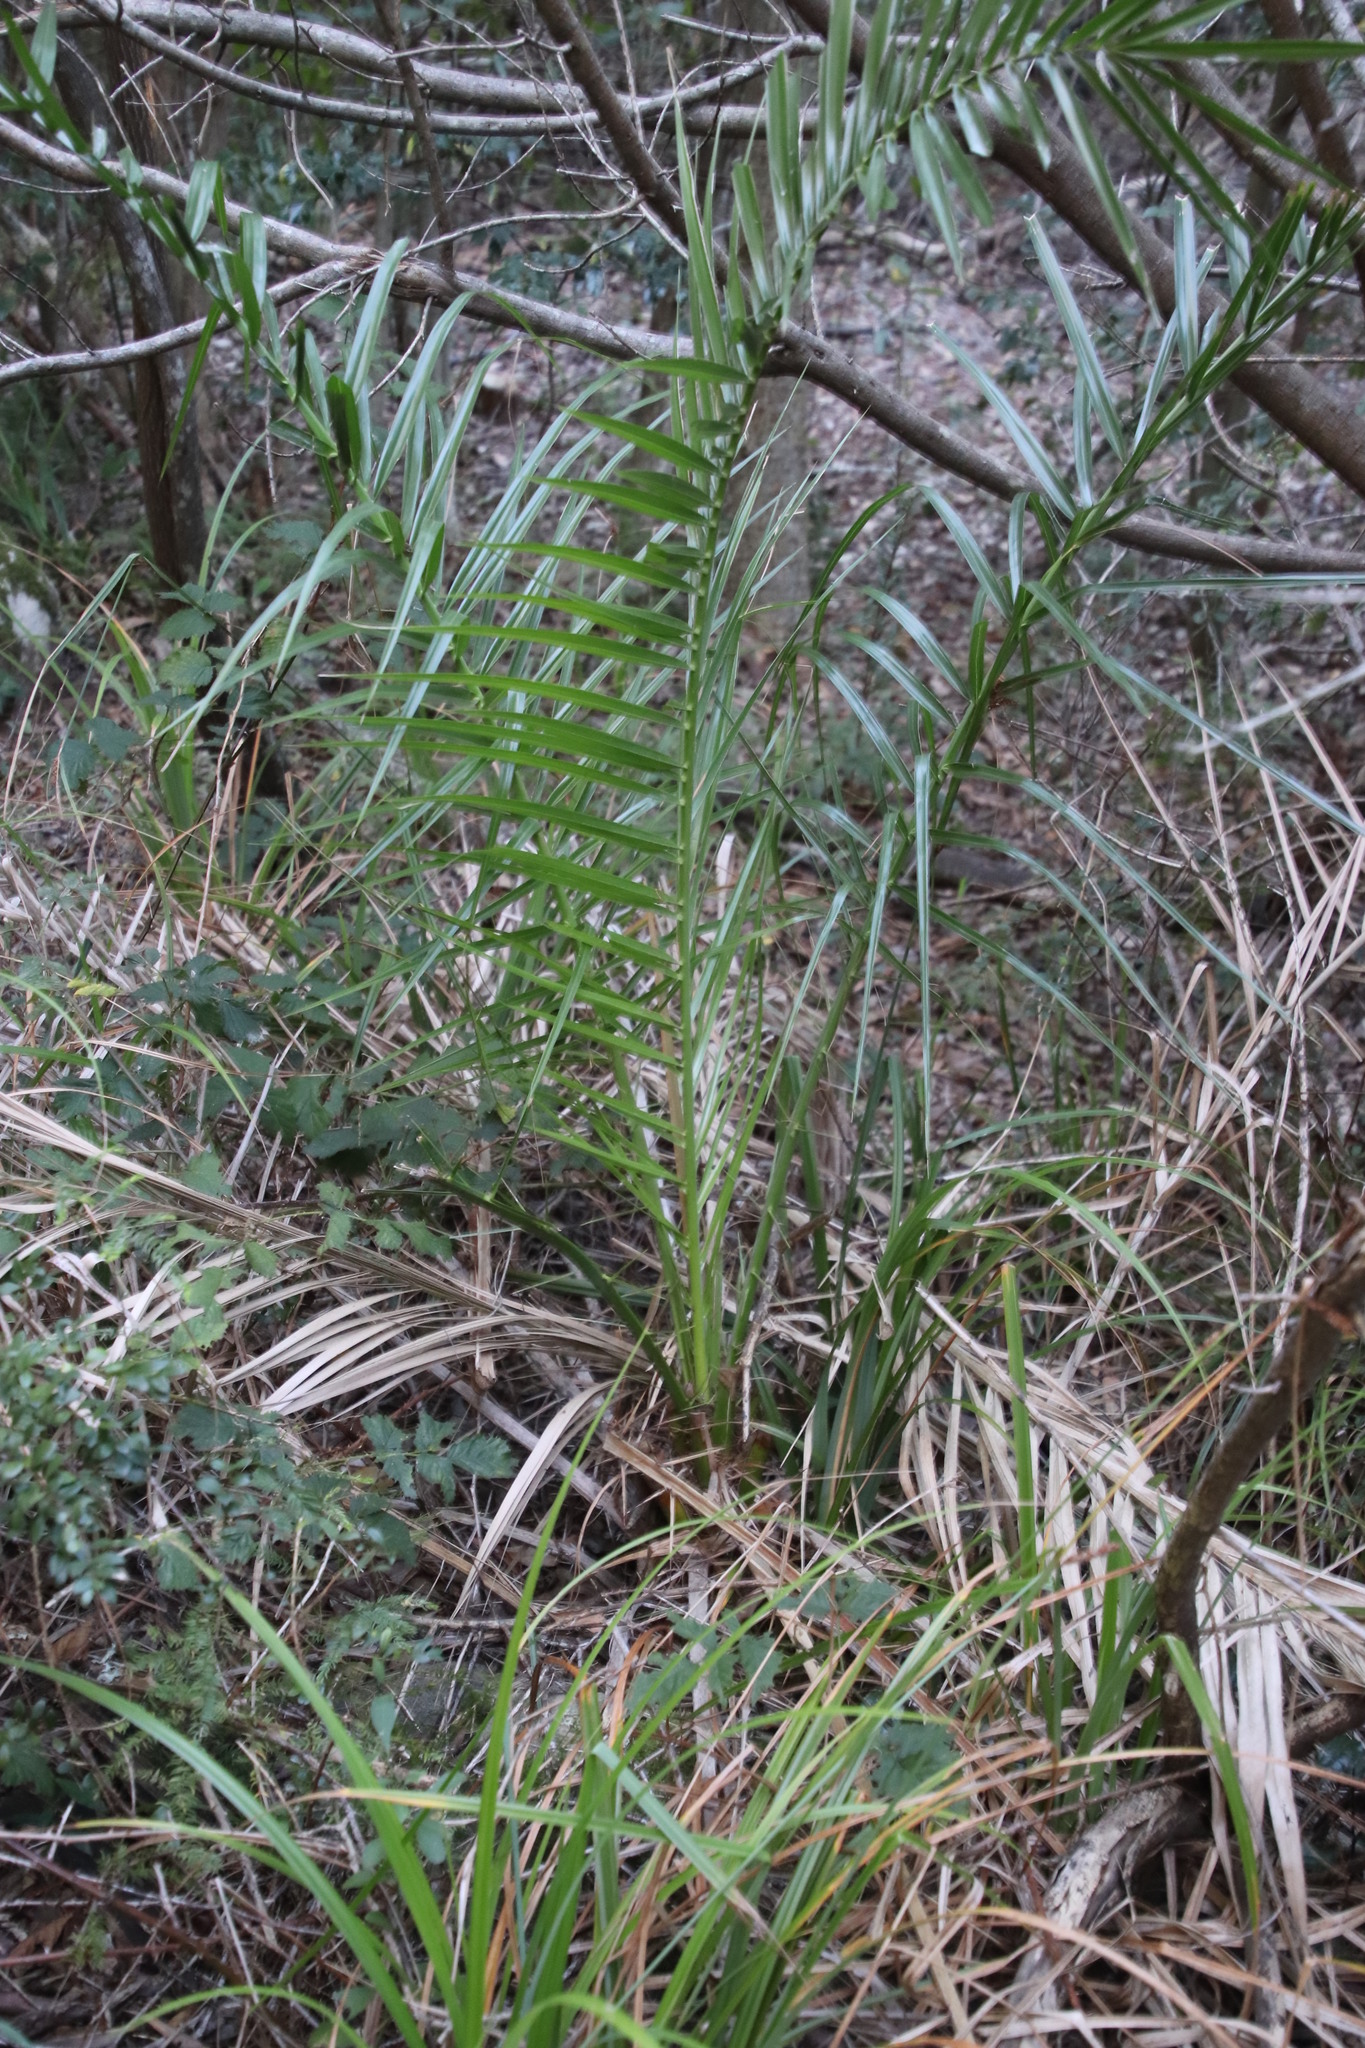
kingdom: Plantae
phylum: Tracheophyta
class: Liliopsida
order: Arecales
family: Arecaceae
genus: Phoenix
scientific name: Phoenix canariensis
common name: Canary island date palm
